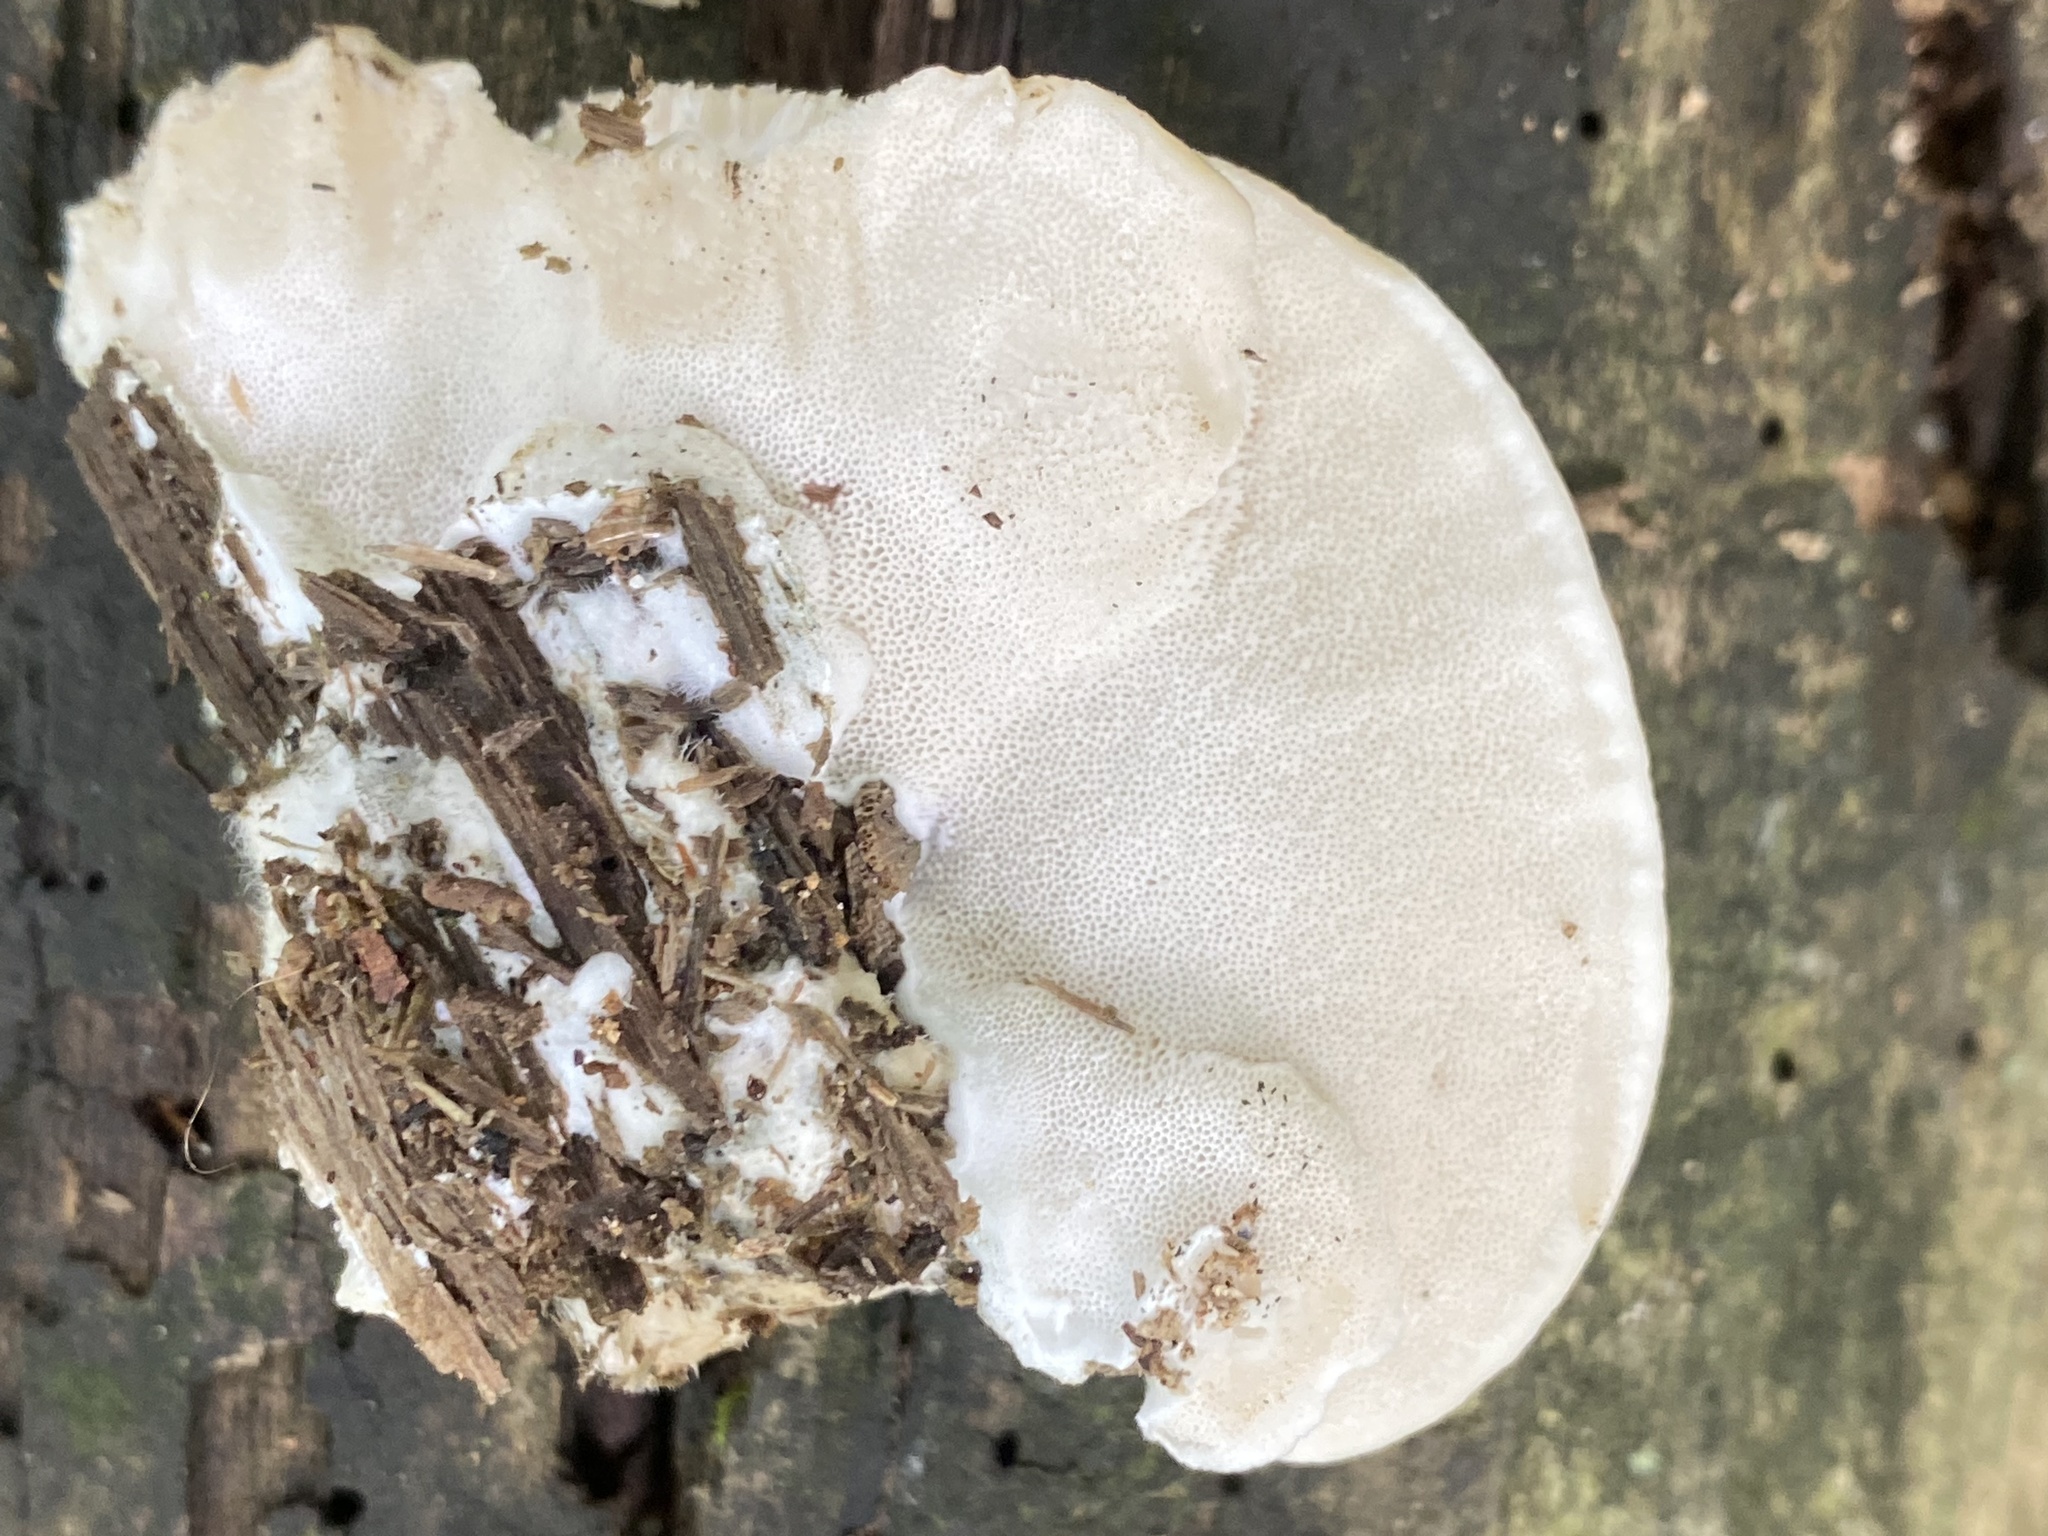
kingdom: Fungi
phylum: Basidiomycota
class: Agaricomycetes
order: Polyporales
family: Polyporaceae
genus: Cyanosporus
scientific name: Cyanosporus livens
